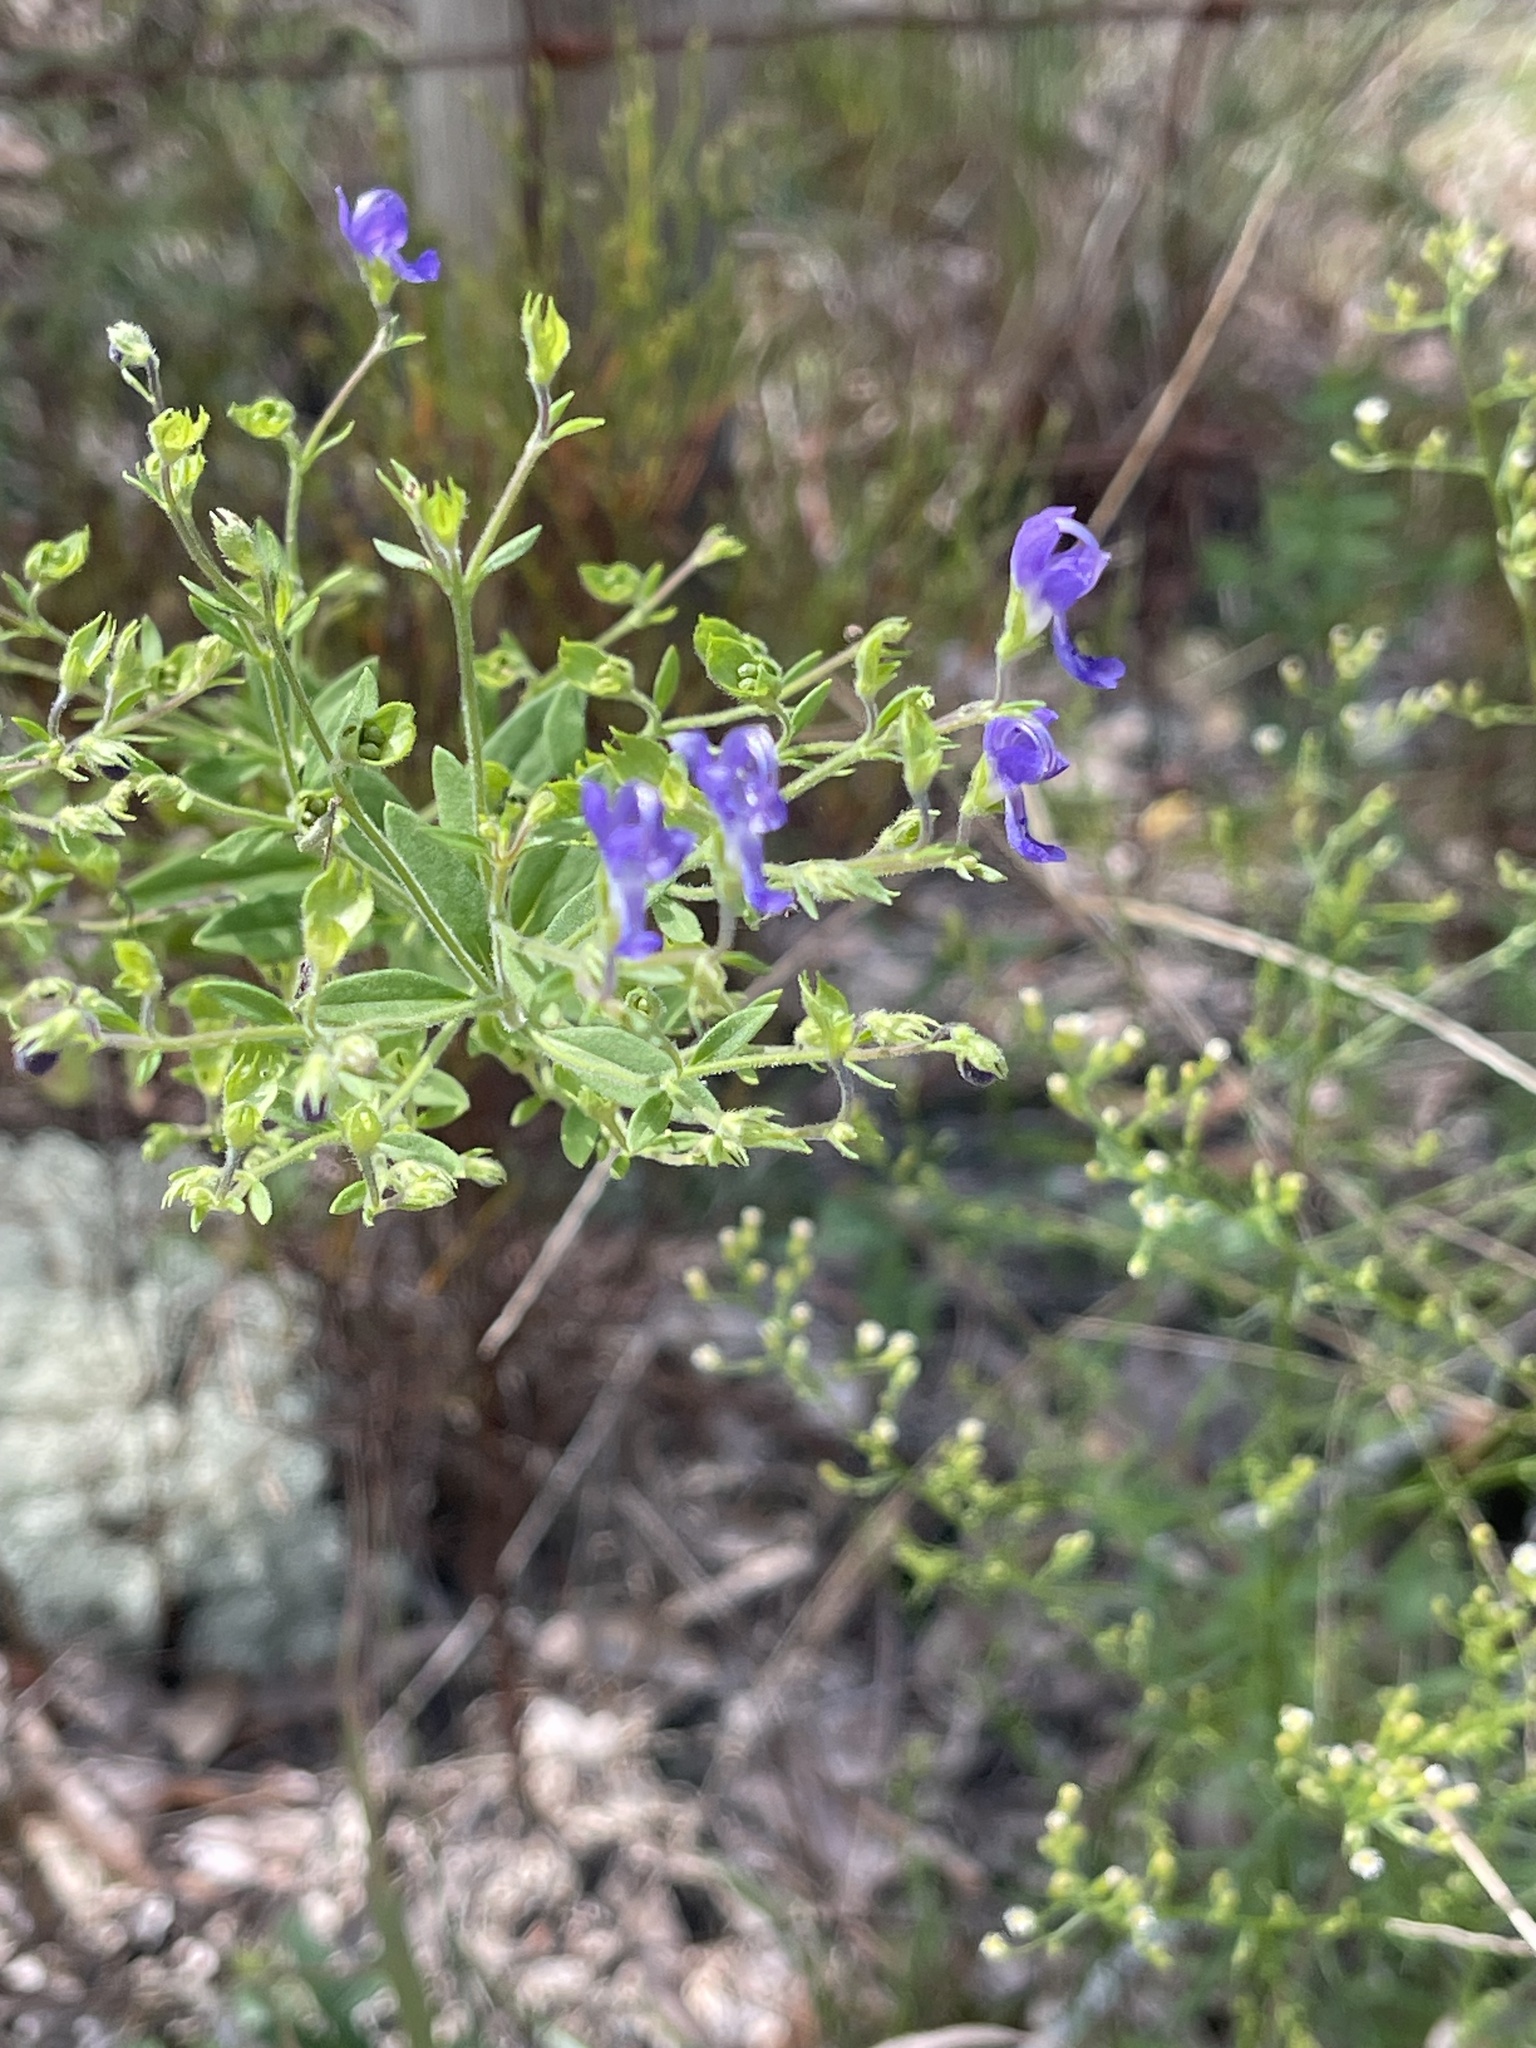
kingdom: Plantae
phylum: Tracheophyta
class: Magnoliopsida
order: Lamiales
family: Lamiaceae
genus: Trichostema
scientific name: Trichostema dichotomum
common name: Bastard pennyroyal
